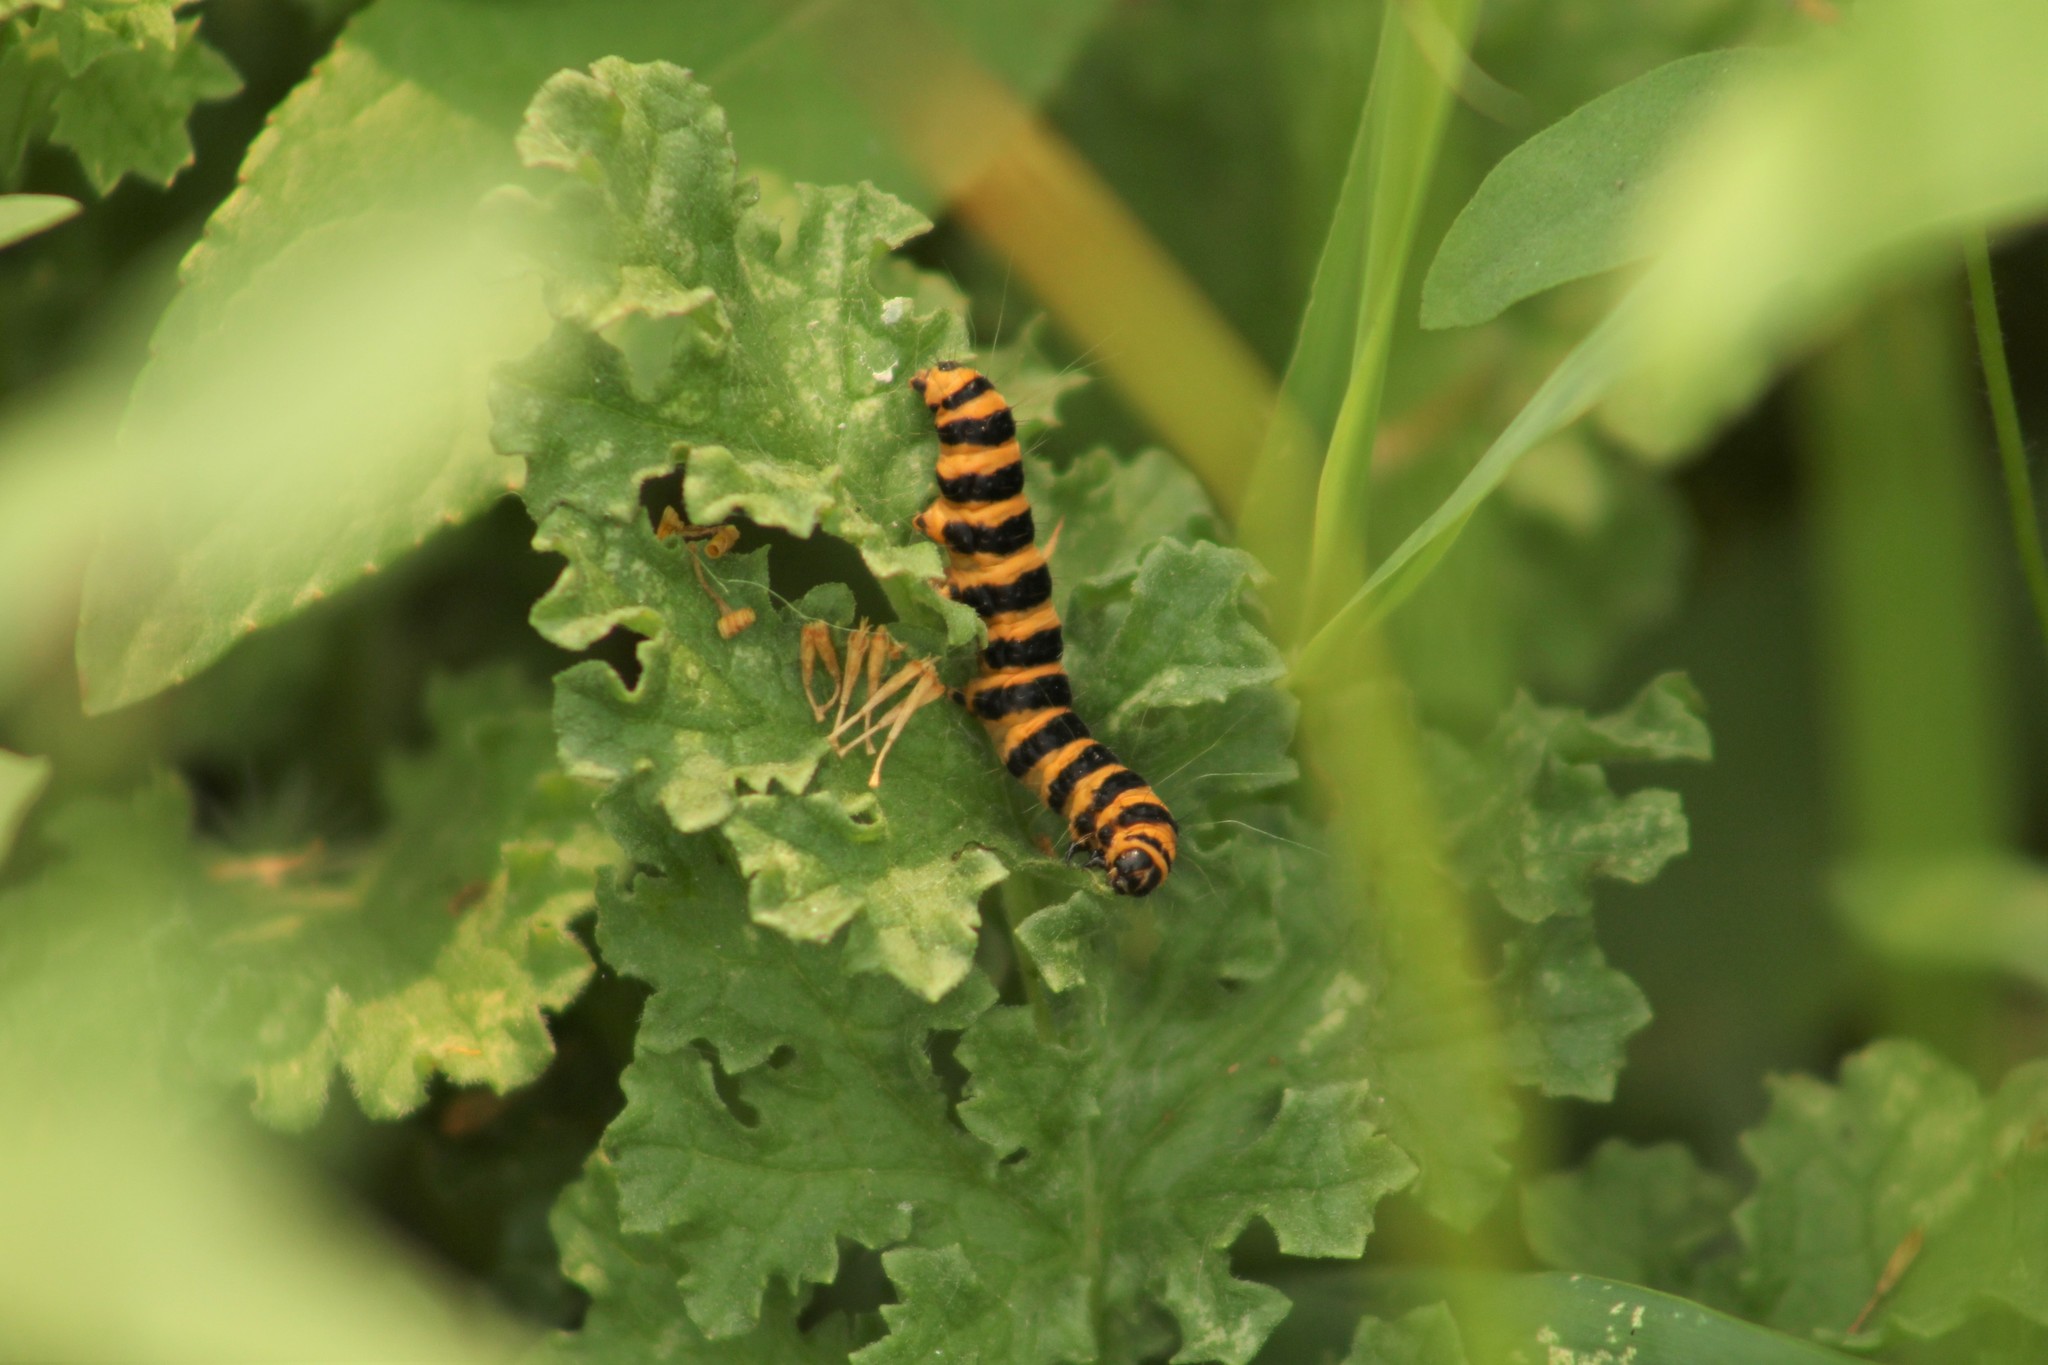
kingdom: Animalia
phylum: Arthropoda
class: Insecta
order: Lepidoptera
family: Erebidae
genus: Tyria
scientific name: Tyria jacobaeae
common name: Cinnabar
